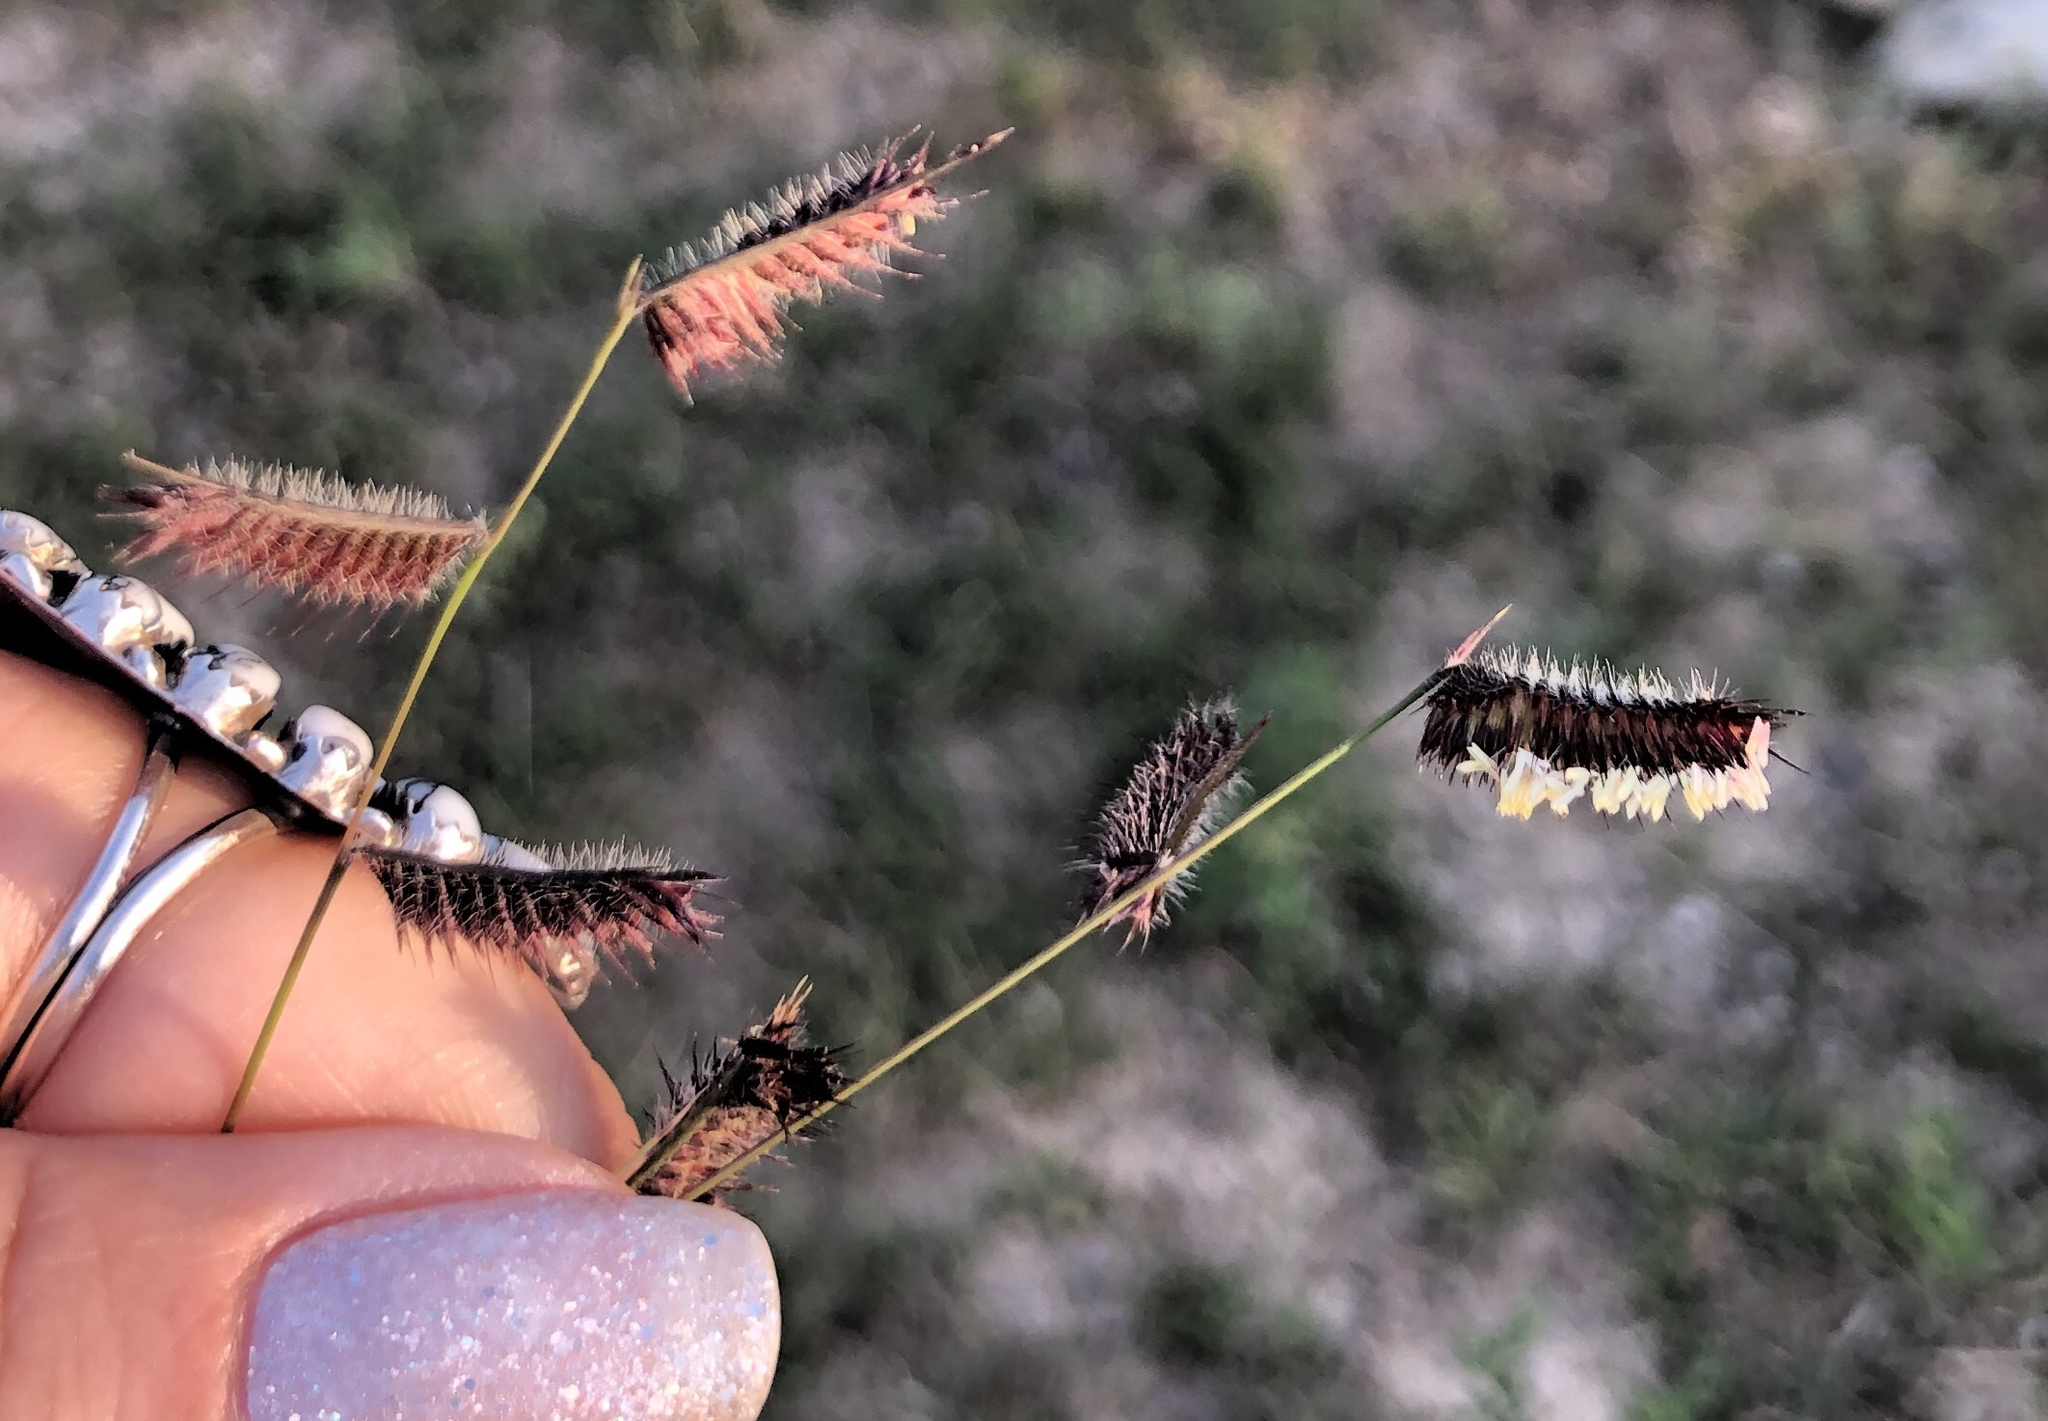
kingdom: Plantae
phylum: Tracheophyta
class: Liliopsida
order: Poales
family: Poaceae
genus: Bouteloua
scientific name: Bouteloua hirsuta
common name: Hairy grama
